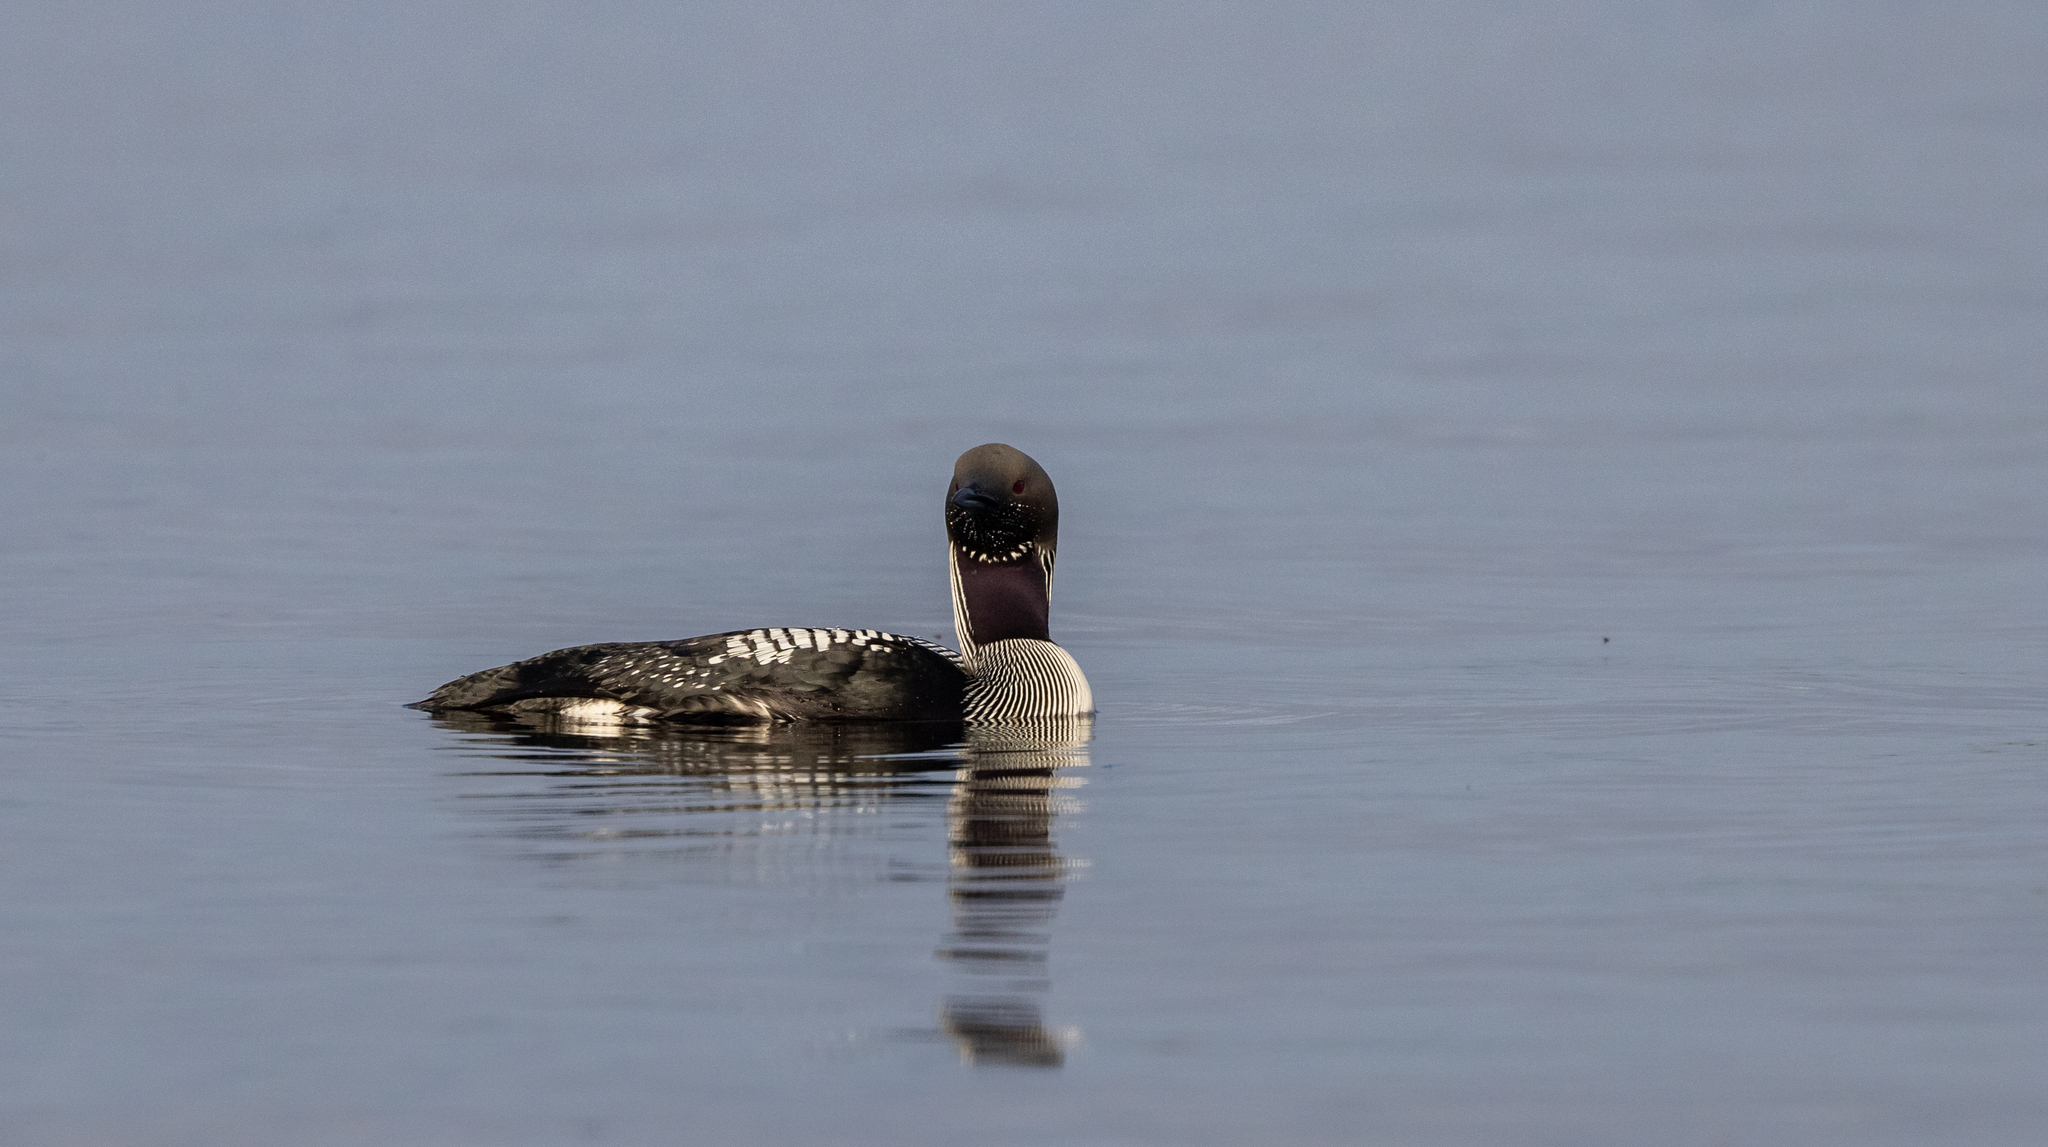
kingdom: Animalia
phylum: Chordata
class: Aves
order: Gaviiformes
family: Gaviidae
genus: Gavia
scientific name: Gavia arctica
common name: Black-throated loon
